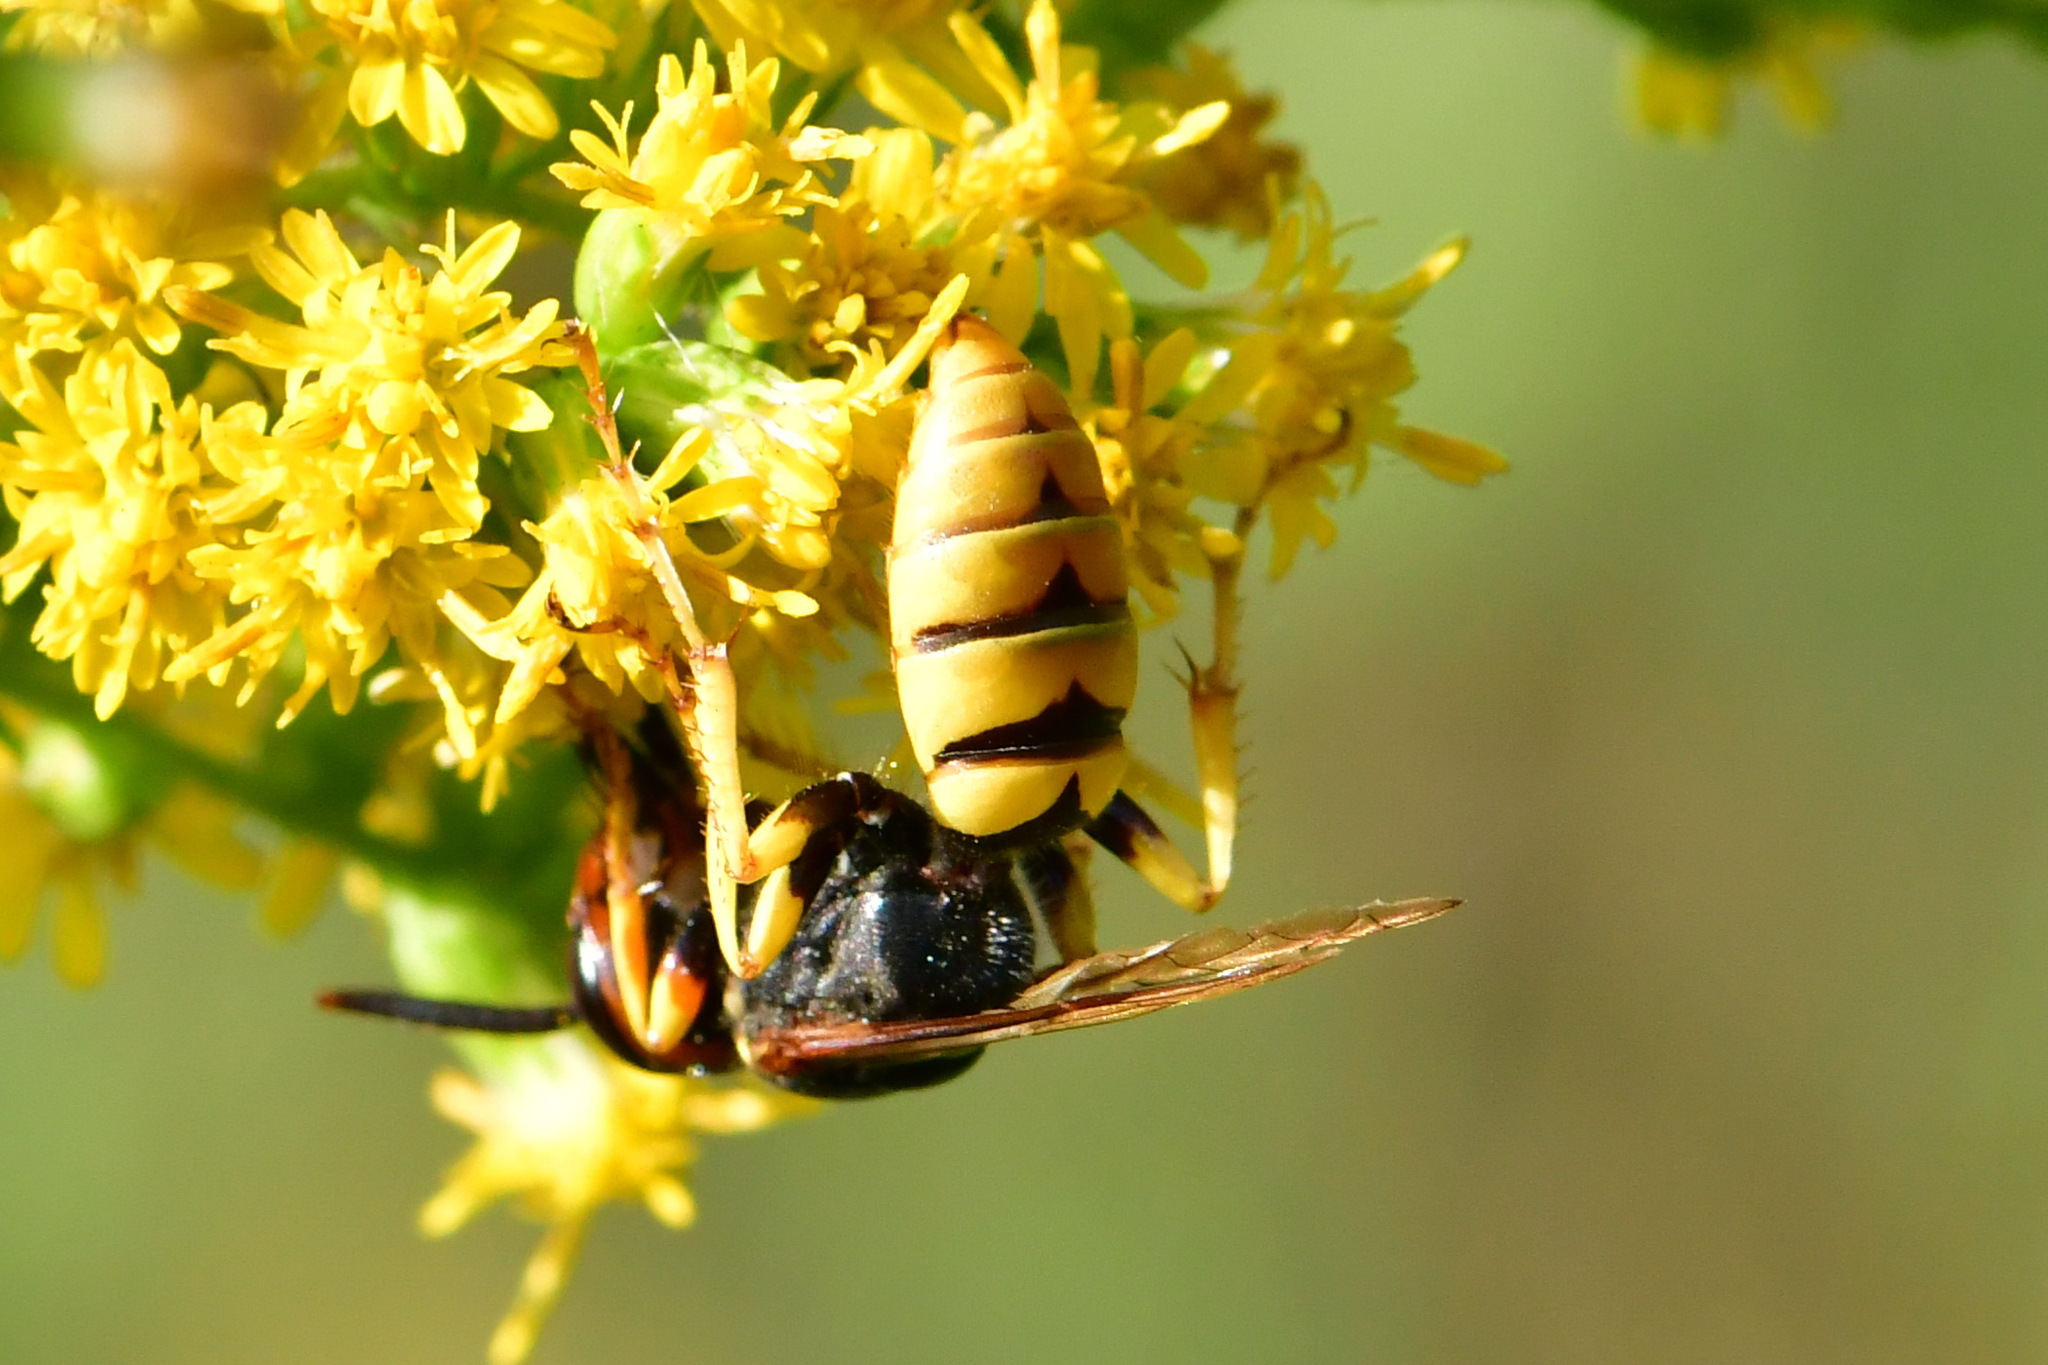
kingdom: Animalia
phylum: Arthropoda
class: Insecta
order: Hymenoptera
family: Crabronidae
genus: Philanthus
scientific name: Philanthus triangulum
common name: Bee wolf
